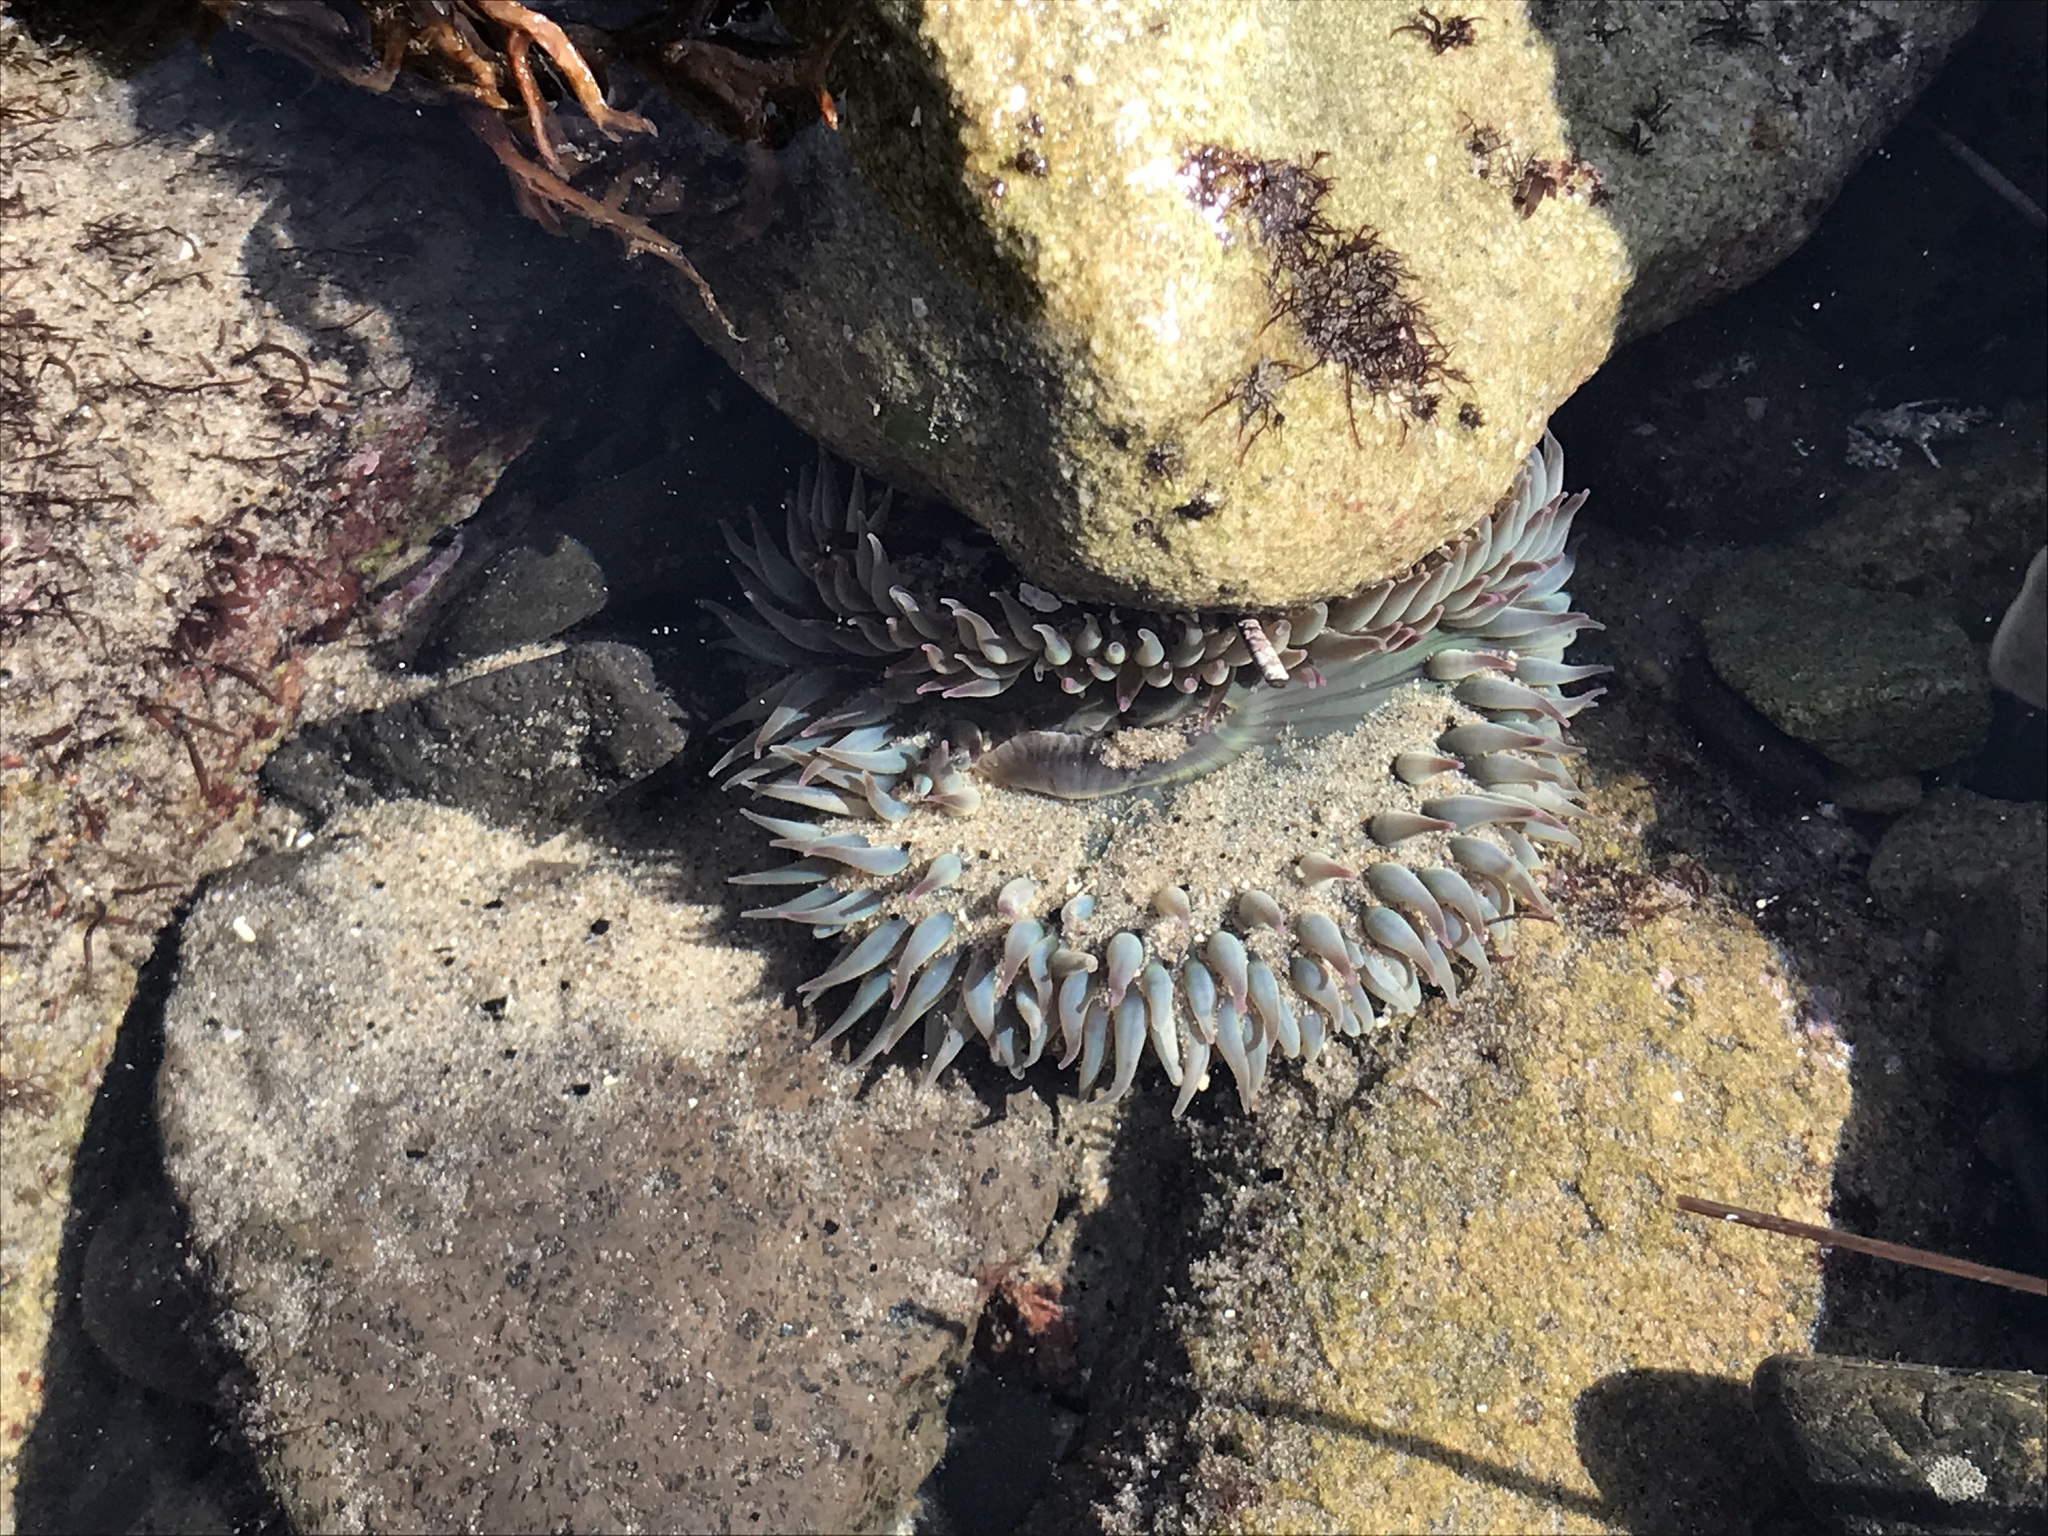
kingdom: Animalia
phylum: Cnidaria
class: Anthozoa
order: Actiniaria
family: Actiniidae
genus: Anthopleura
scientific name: Anthopleura sola
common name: Sun anemone
